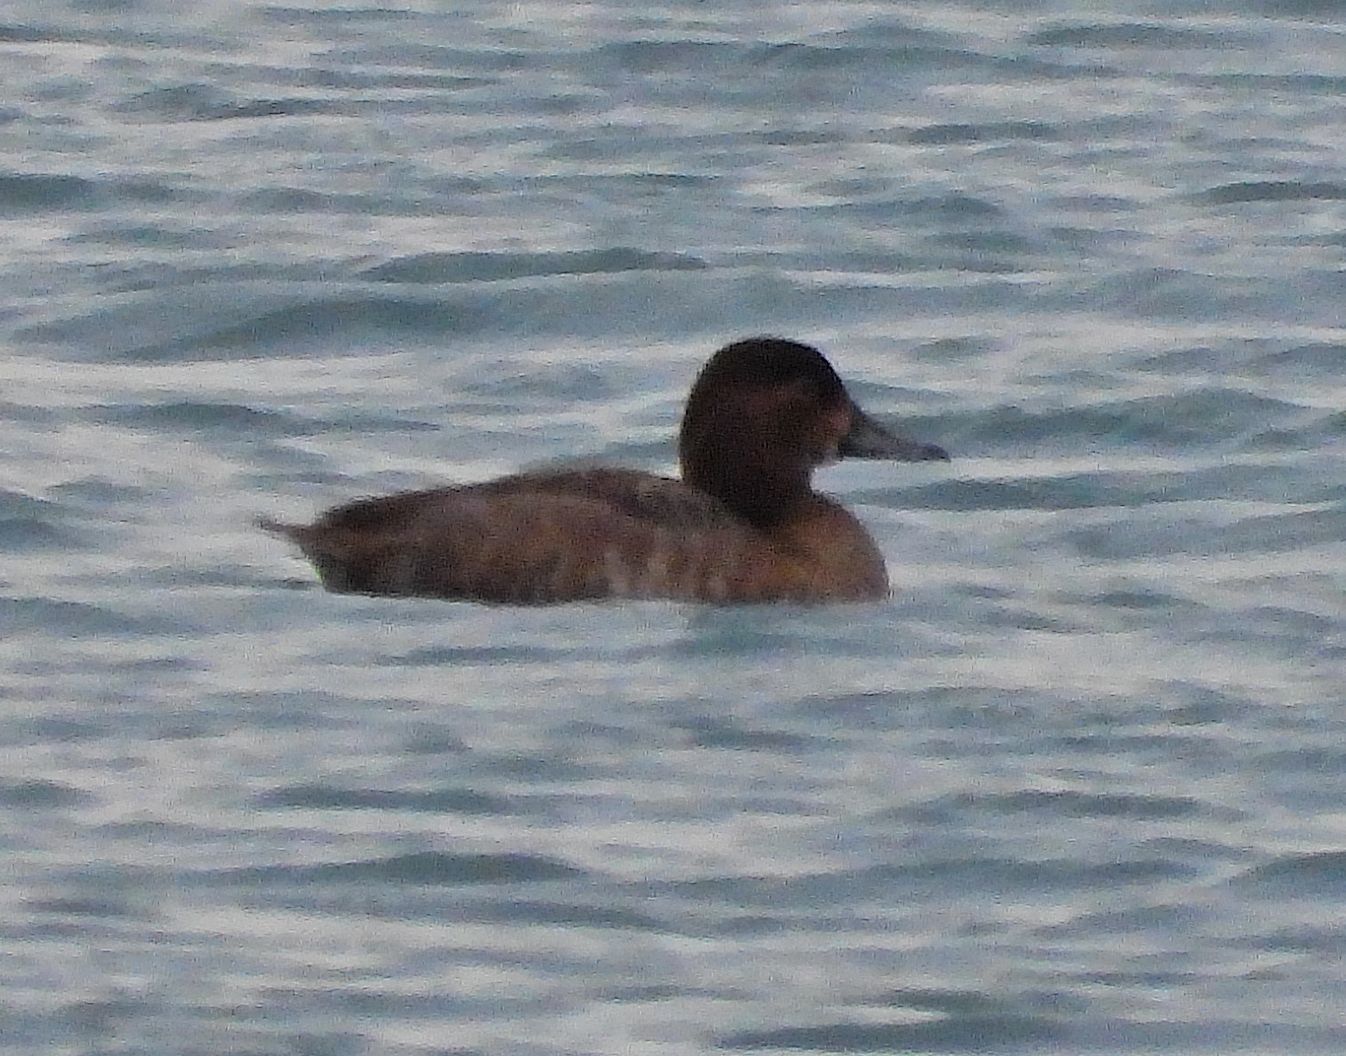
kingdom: Animalia
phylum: Chordata
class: Aves
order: Anseriformes
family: Anatidae
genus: Aythya
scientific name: Aythya americana
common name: Redhead
